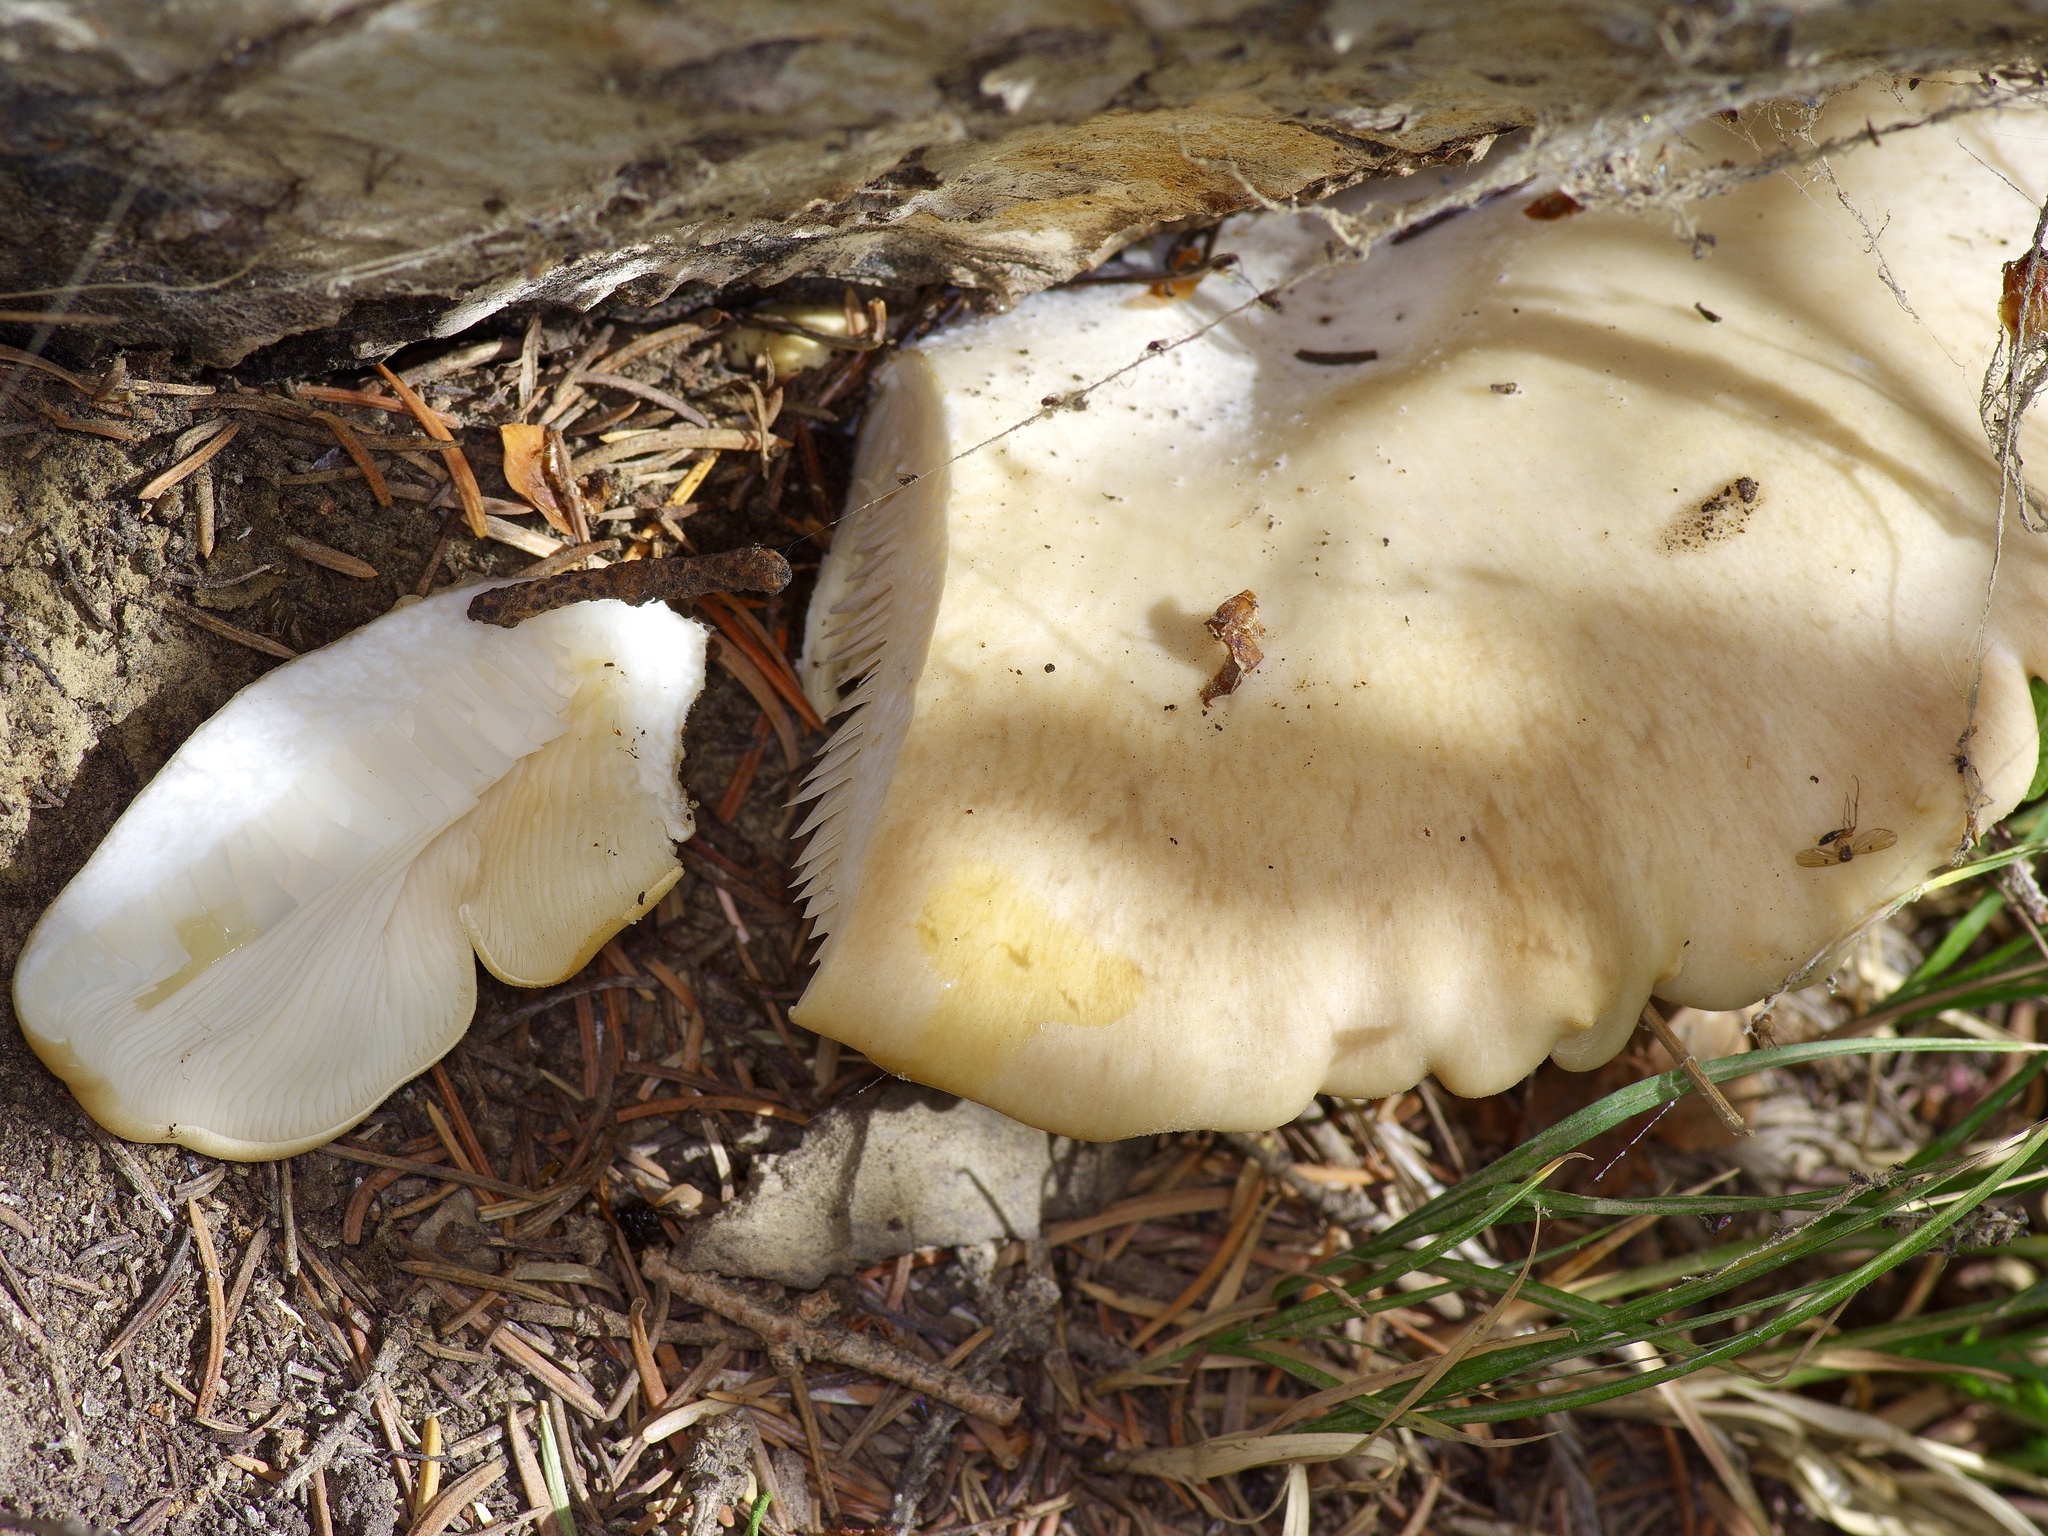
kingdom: Fungi
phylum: Basidiomycota
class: Agaricomycetes
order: Agaricales
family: Pleurotaceae
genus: Pleurotus
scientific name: Pleurotus populinus
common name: Aspen oyster mushroom
